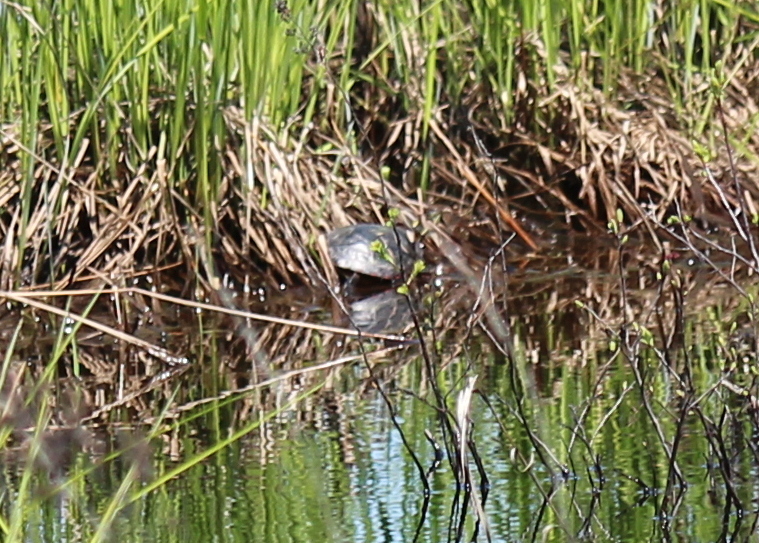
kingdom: Animalia
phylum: Chordata
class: Testudines
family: Emydidae
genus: Chrysemys
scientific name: Chrysemys picta
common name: Painted turtle
